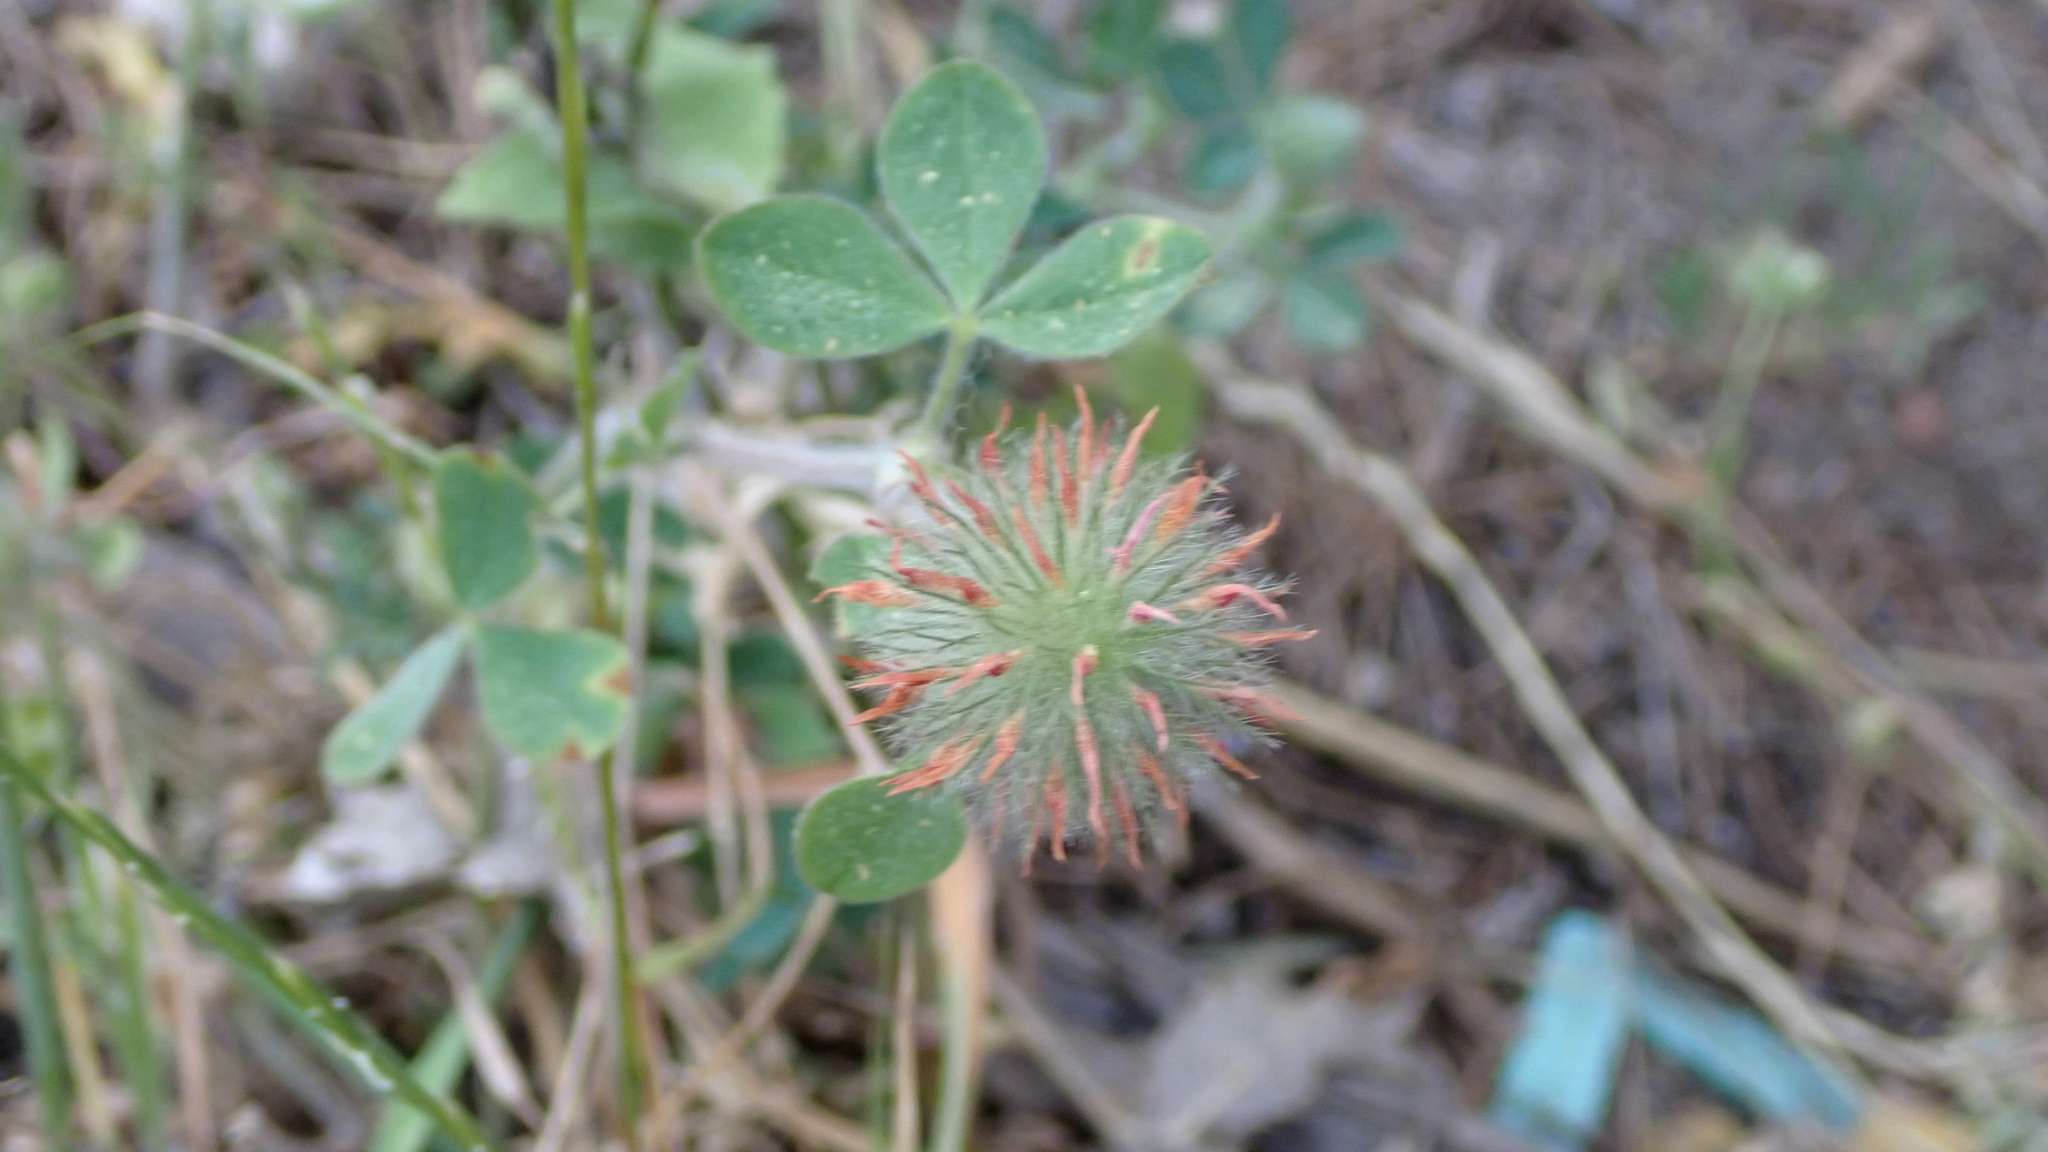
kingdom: Plantae
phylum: Tracheophyta
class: Magnoliopsida
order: Fabales
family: Fabaceae
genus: Trifolium
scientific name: Trifolium hirtum
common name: Rose clover
